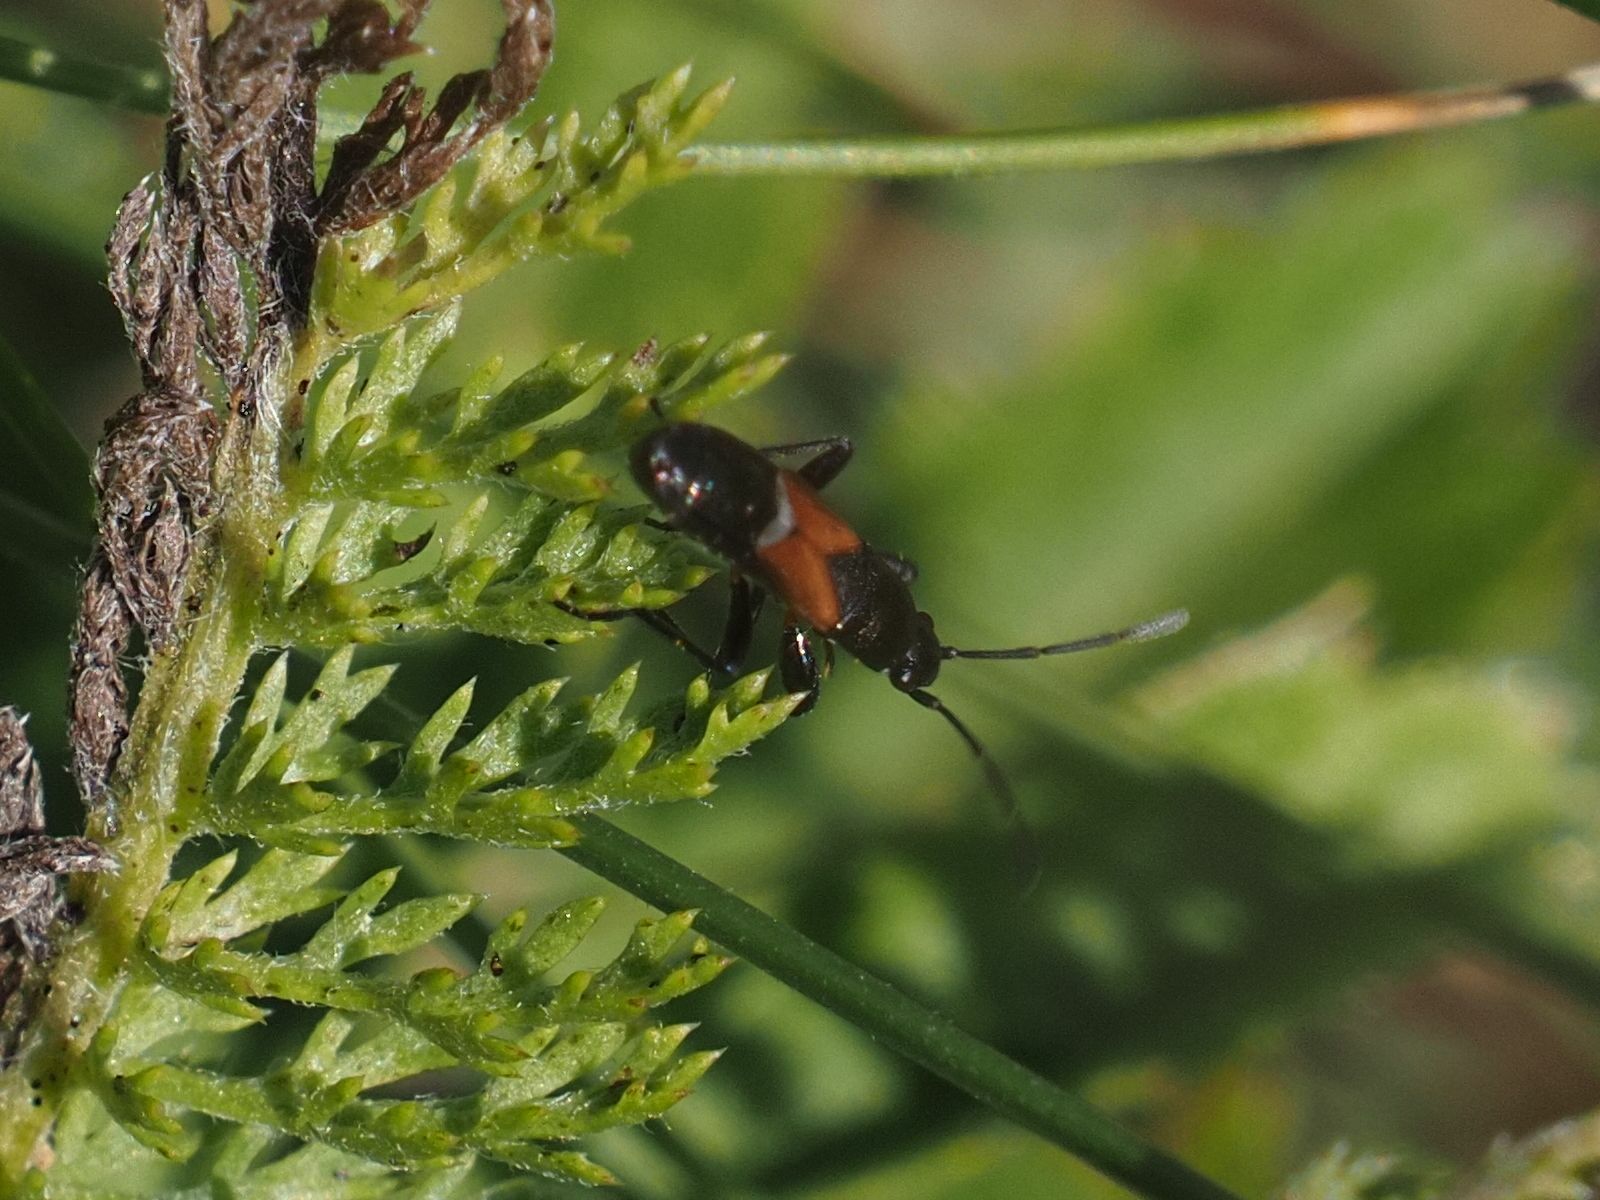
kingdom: Animalia
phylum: Arthropoda
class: Insecta
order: Hemiptera
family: Rhyparochromidae
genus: Pterotmetus
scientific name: Pterotmetus staphyliniformis
